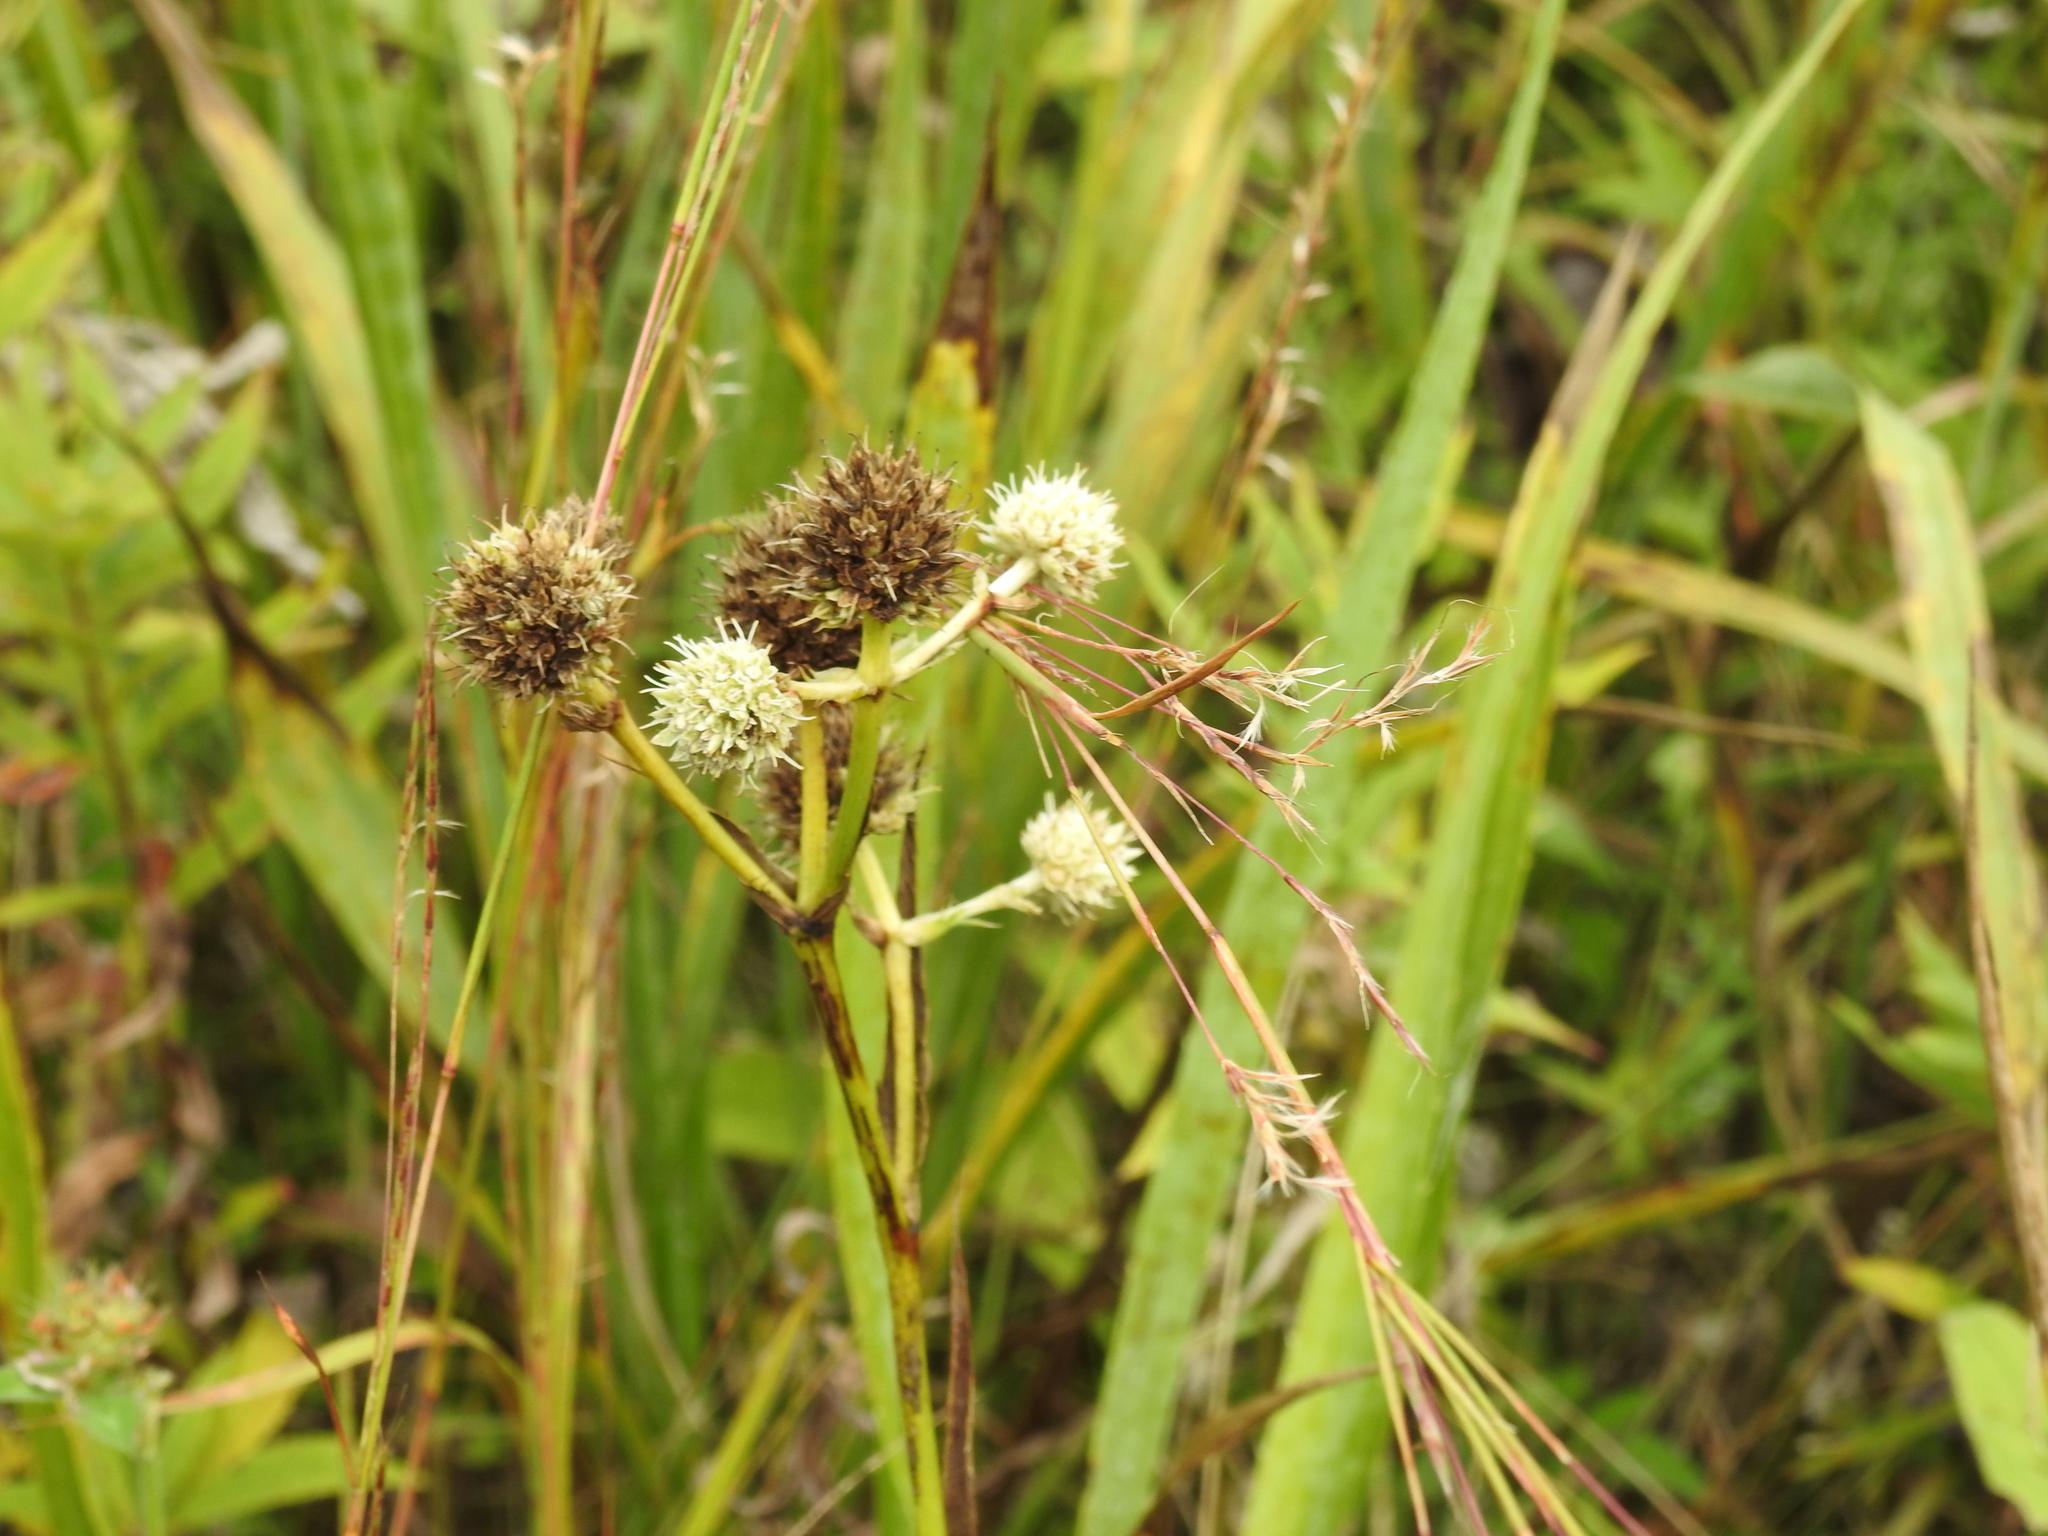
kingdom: Plantae
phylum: Tracheophyta
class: Magnoliopsida
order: Apiales
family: Apiaceae
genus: Eryngium
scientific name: Eryngium yuccifolium
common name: Button eryngo
